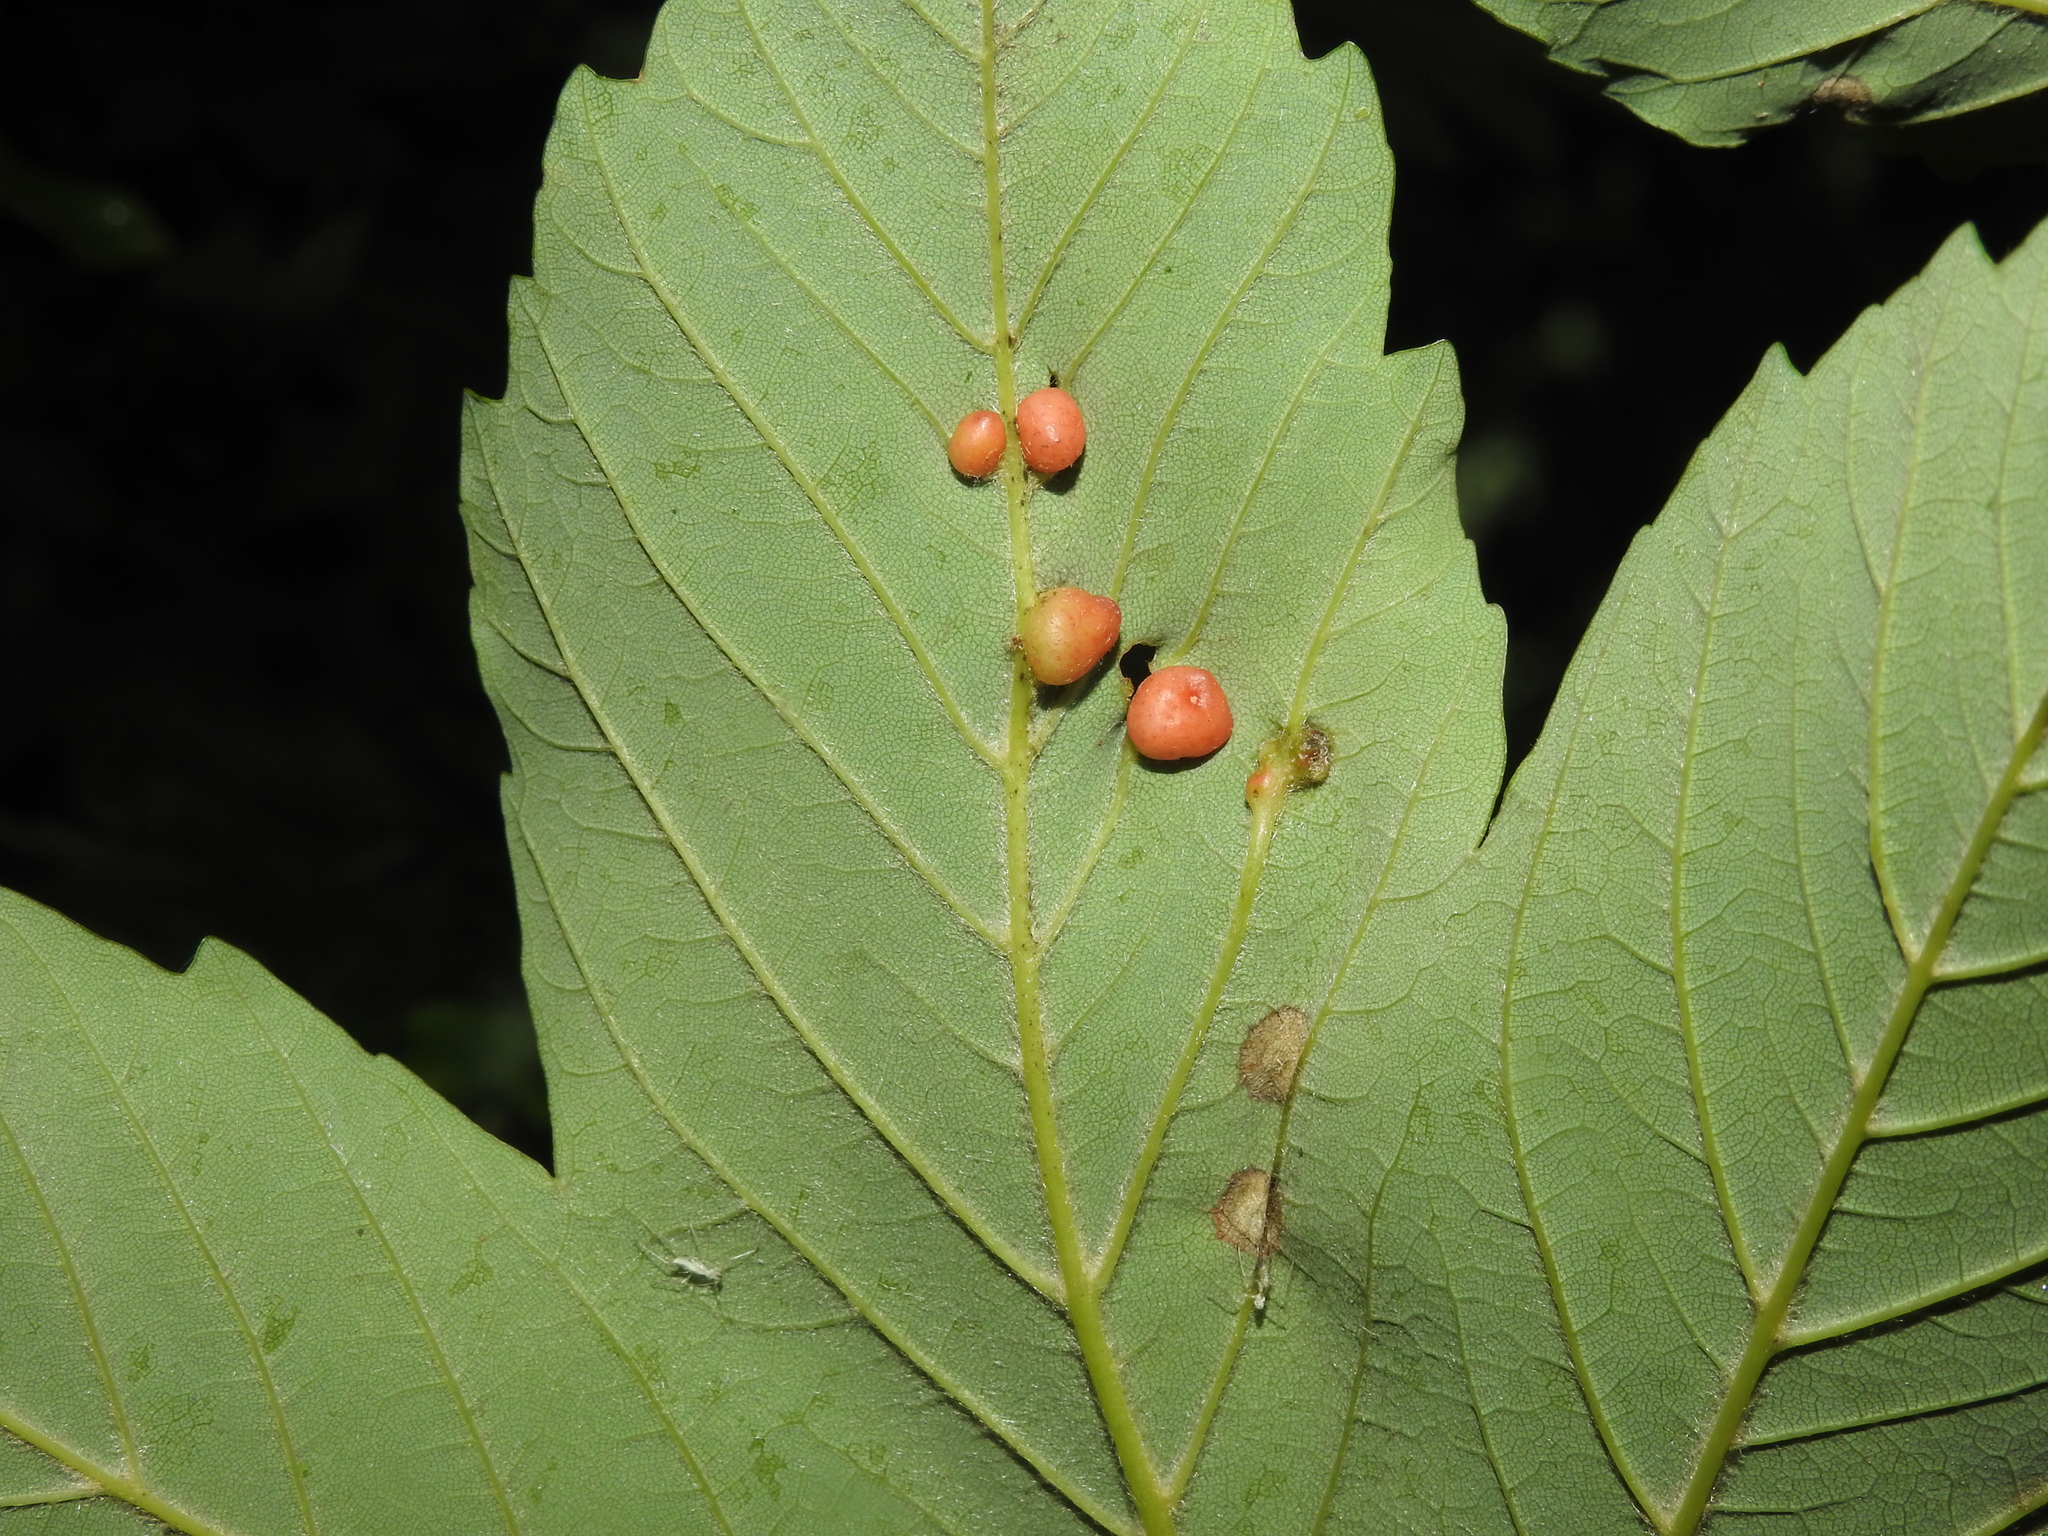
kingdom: Animalia
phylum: Arthropoda
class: Insecta
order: Hymenoptera
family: Cynipidae
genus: Pediaspis
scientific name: Pediaspis aceris
